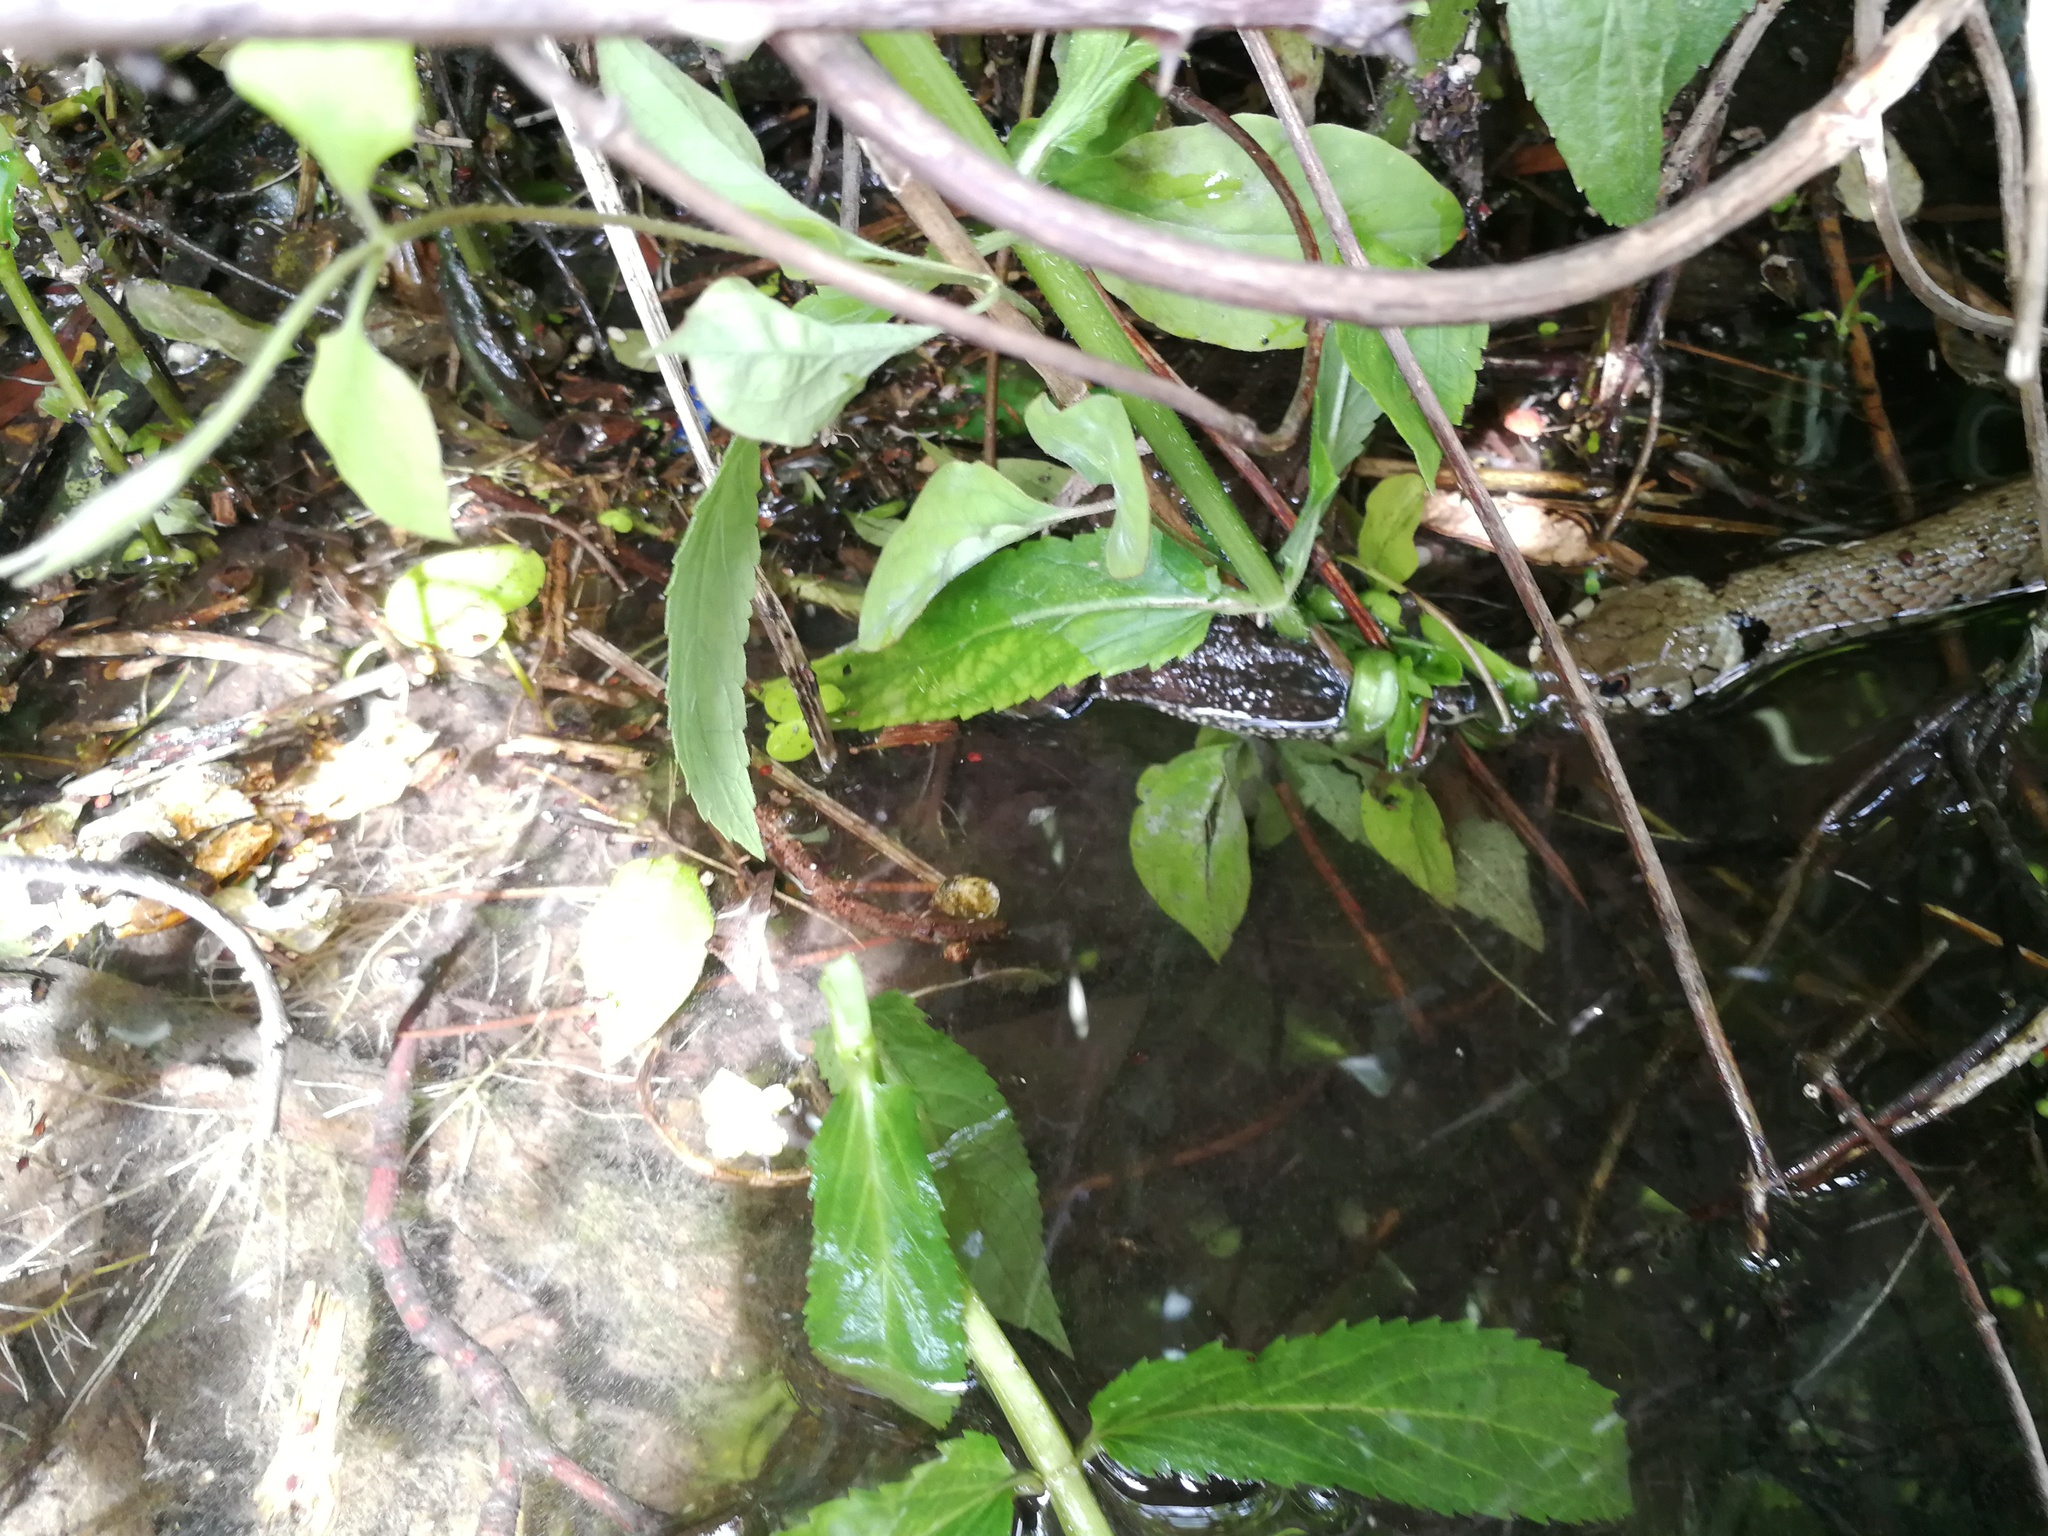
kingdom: Animalia
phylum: Chordata
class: Squamata
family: Colubridae
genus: Natrix
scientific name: Natrix helvetica
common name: Banded grass snake
